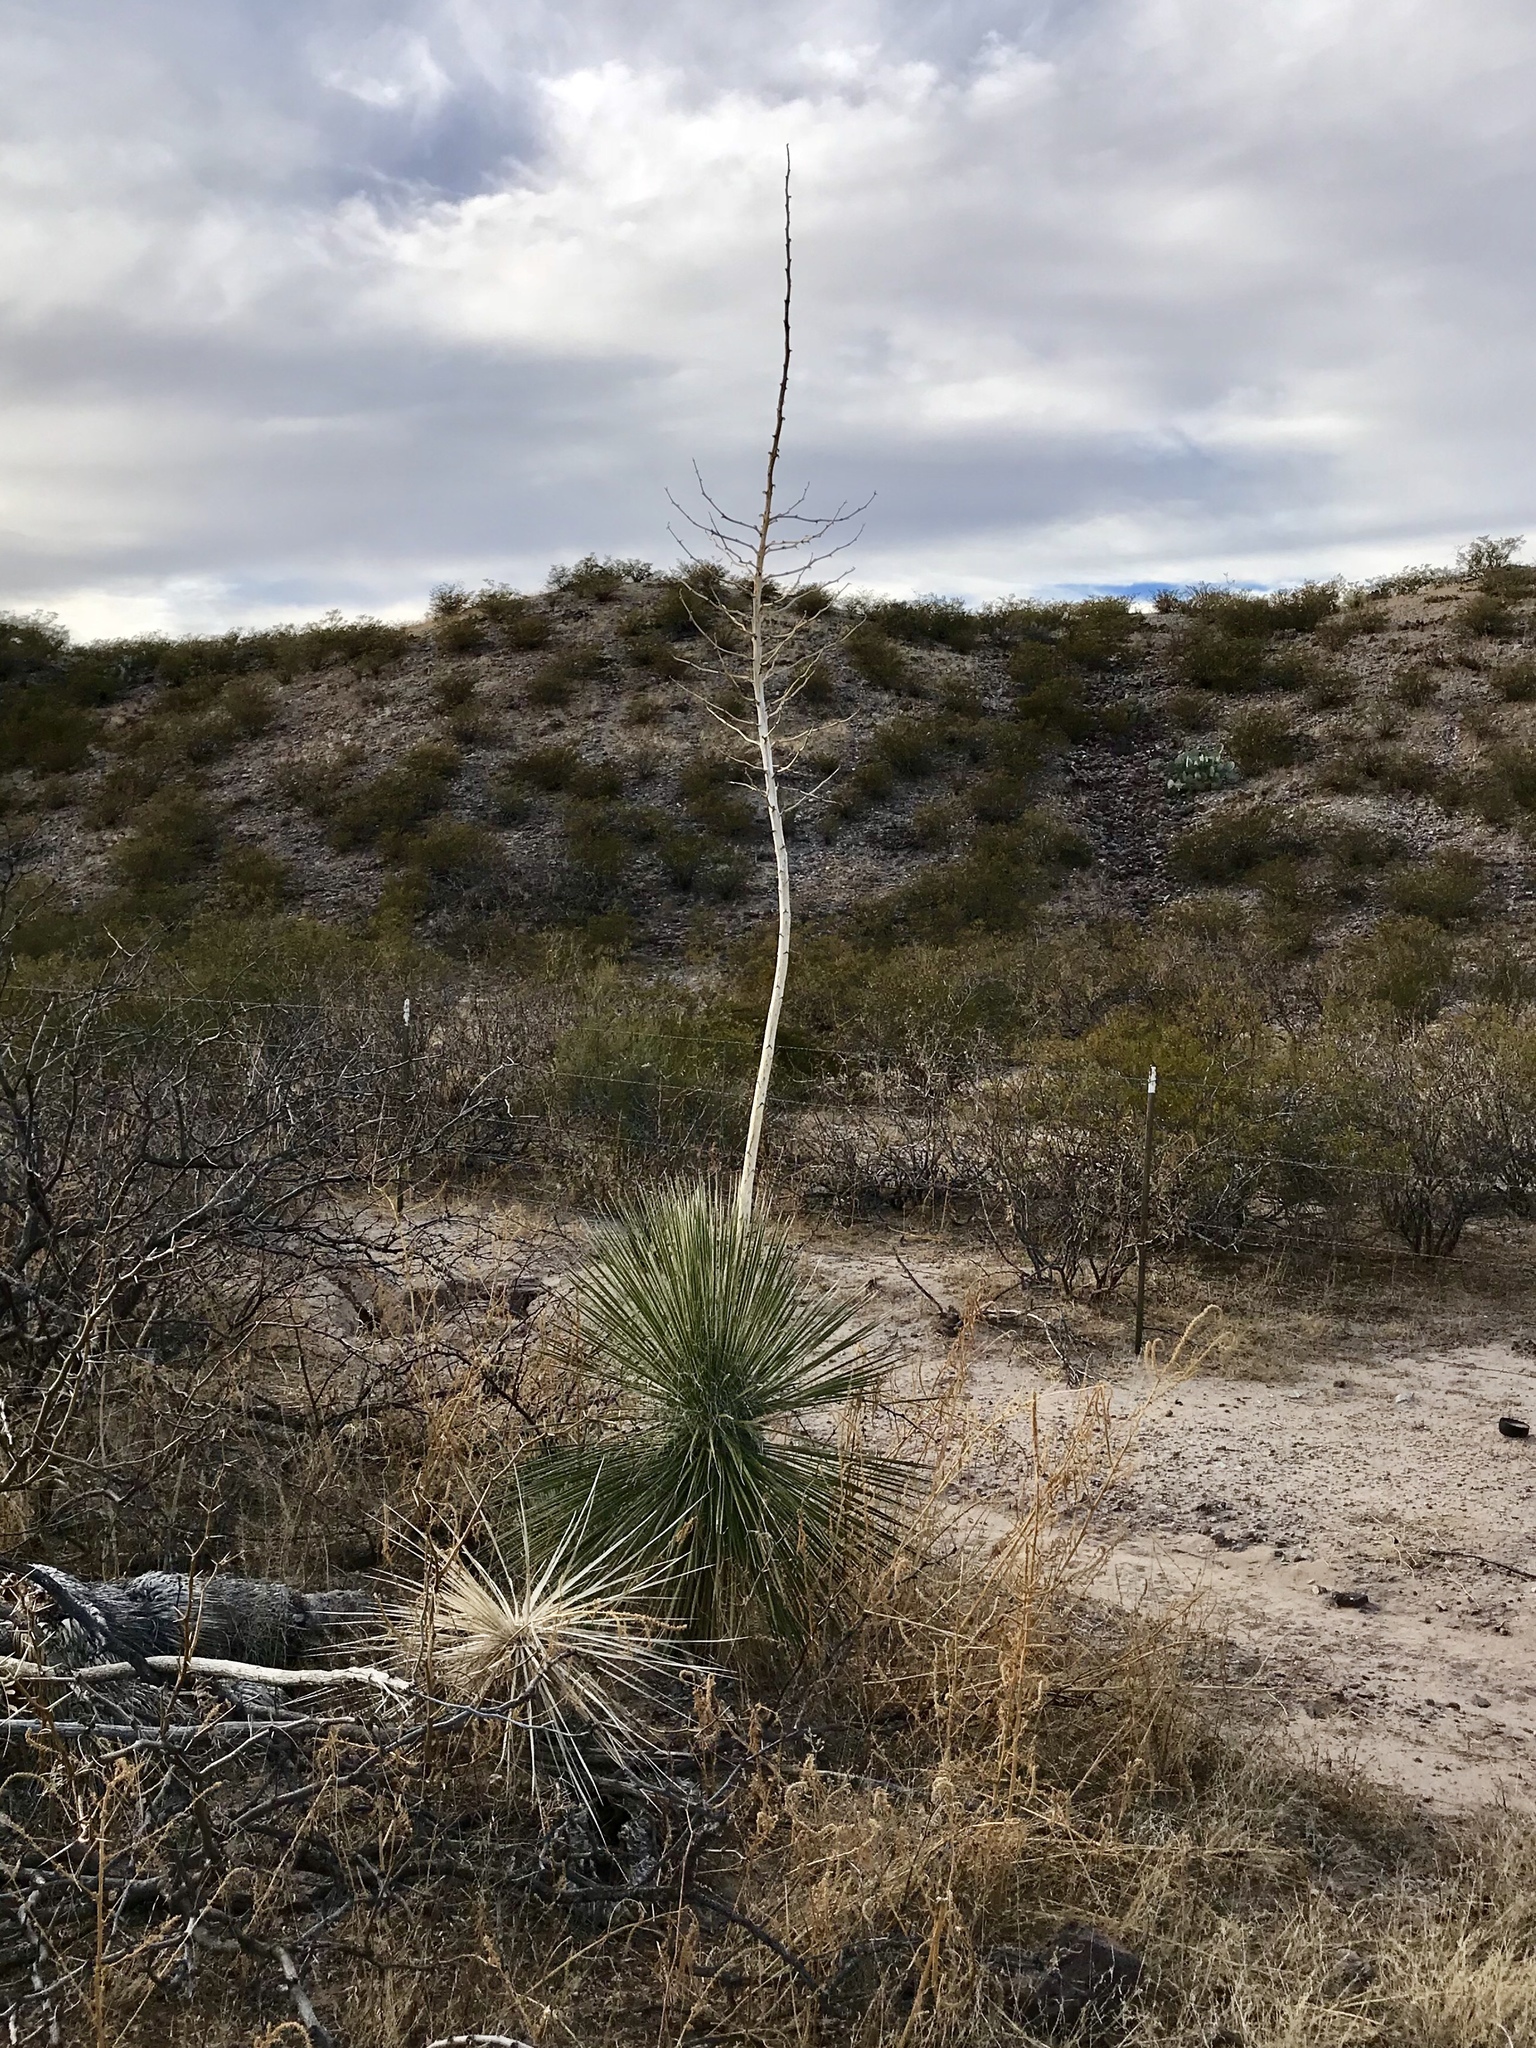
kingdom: Plantae
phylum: Tracheophyta
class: Liliopsida
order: Asparagales
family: Asparagaceae
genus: Yucca
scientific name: Yucca elata
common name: Palmella
